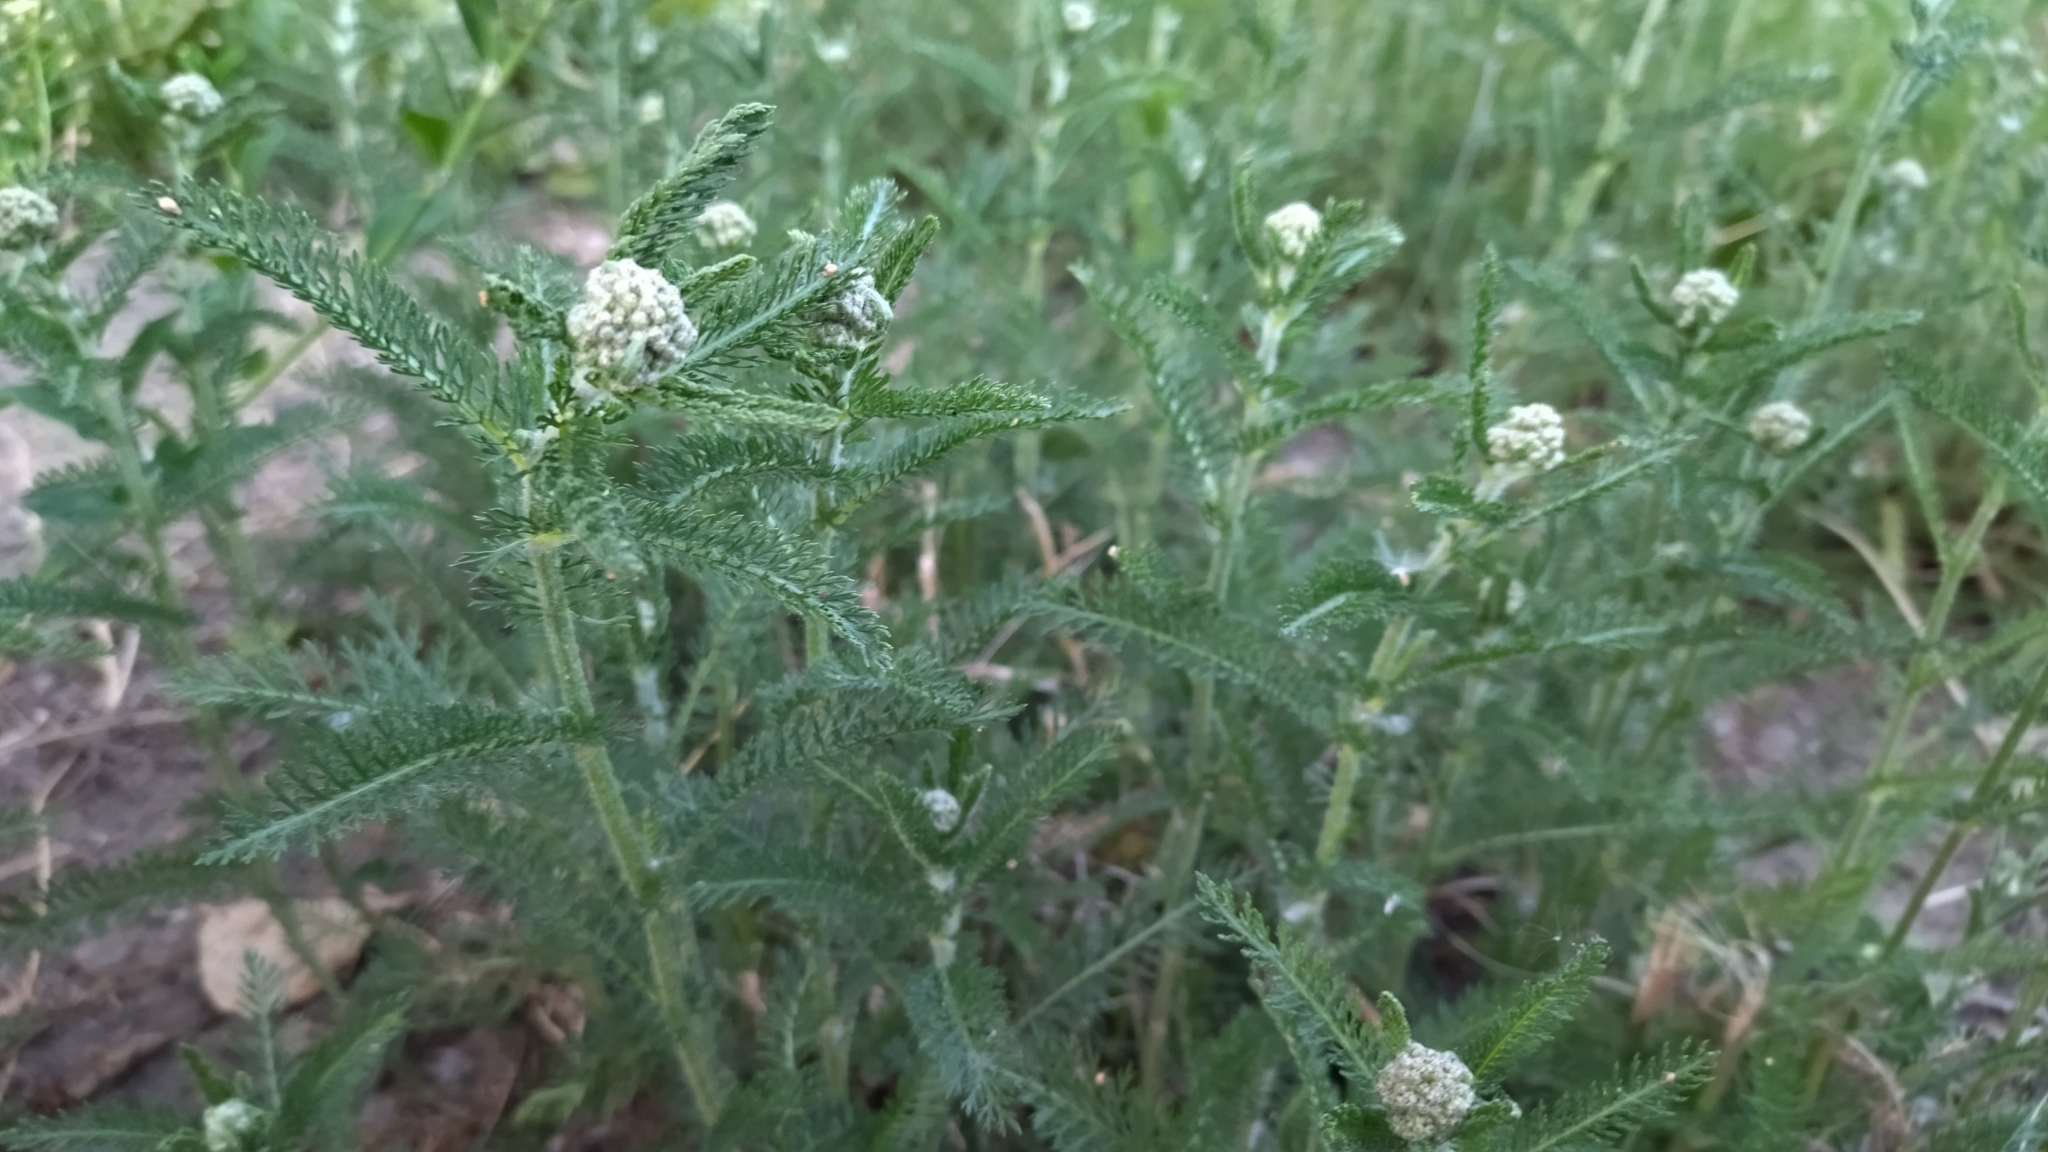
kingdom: Plantae
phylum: Tracheophyta
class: Magnoliopsida
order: Asterales
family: Asteraceae
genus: Achillea
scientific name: Achillea millefolium
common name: Yarrow
